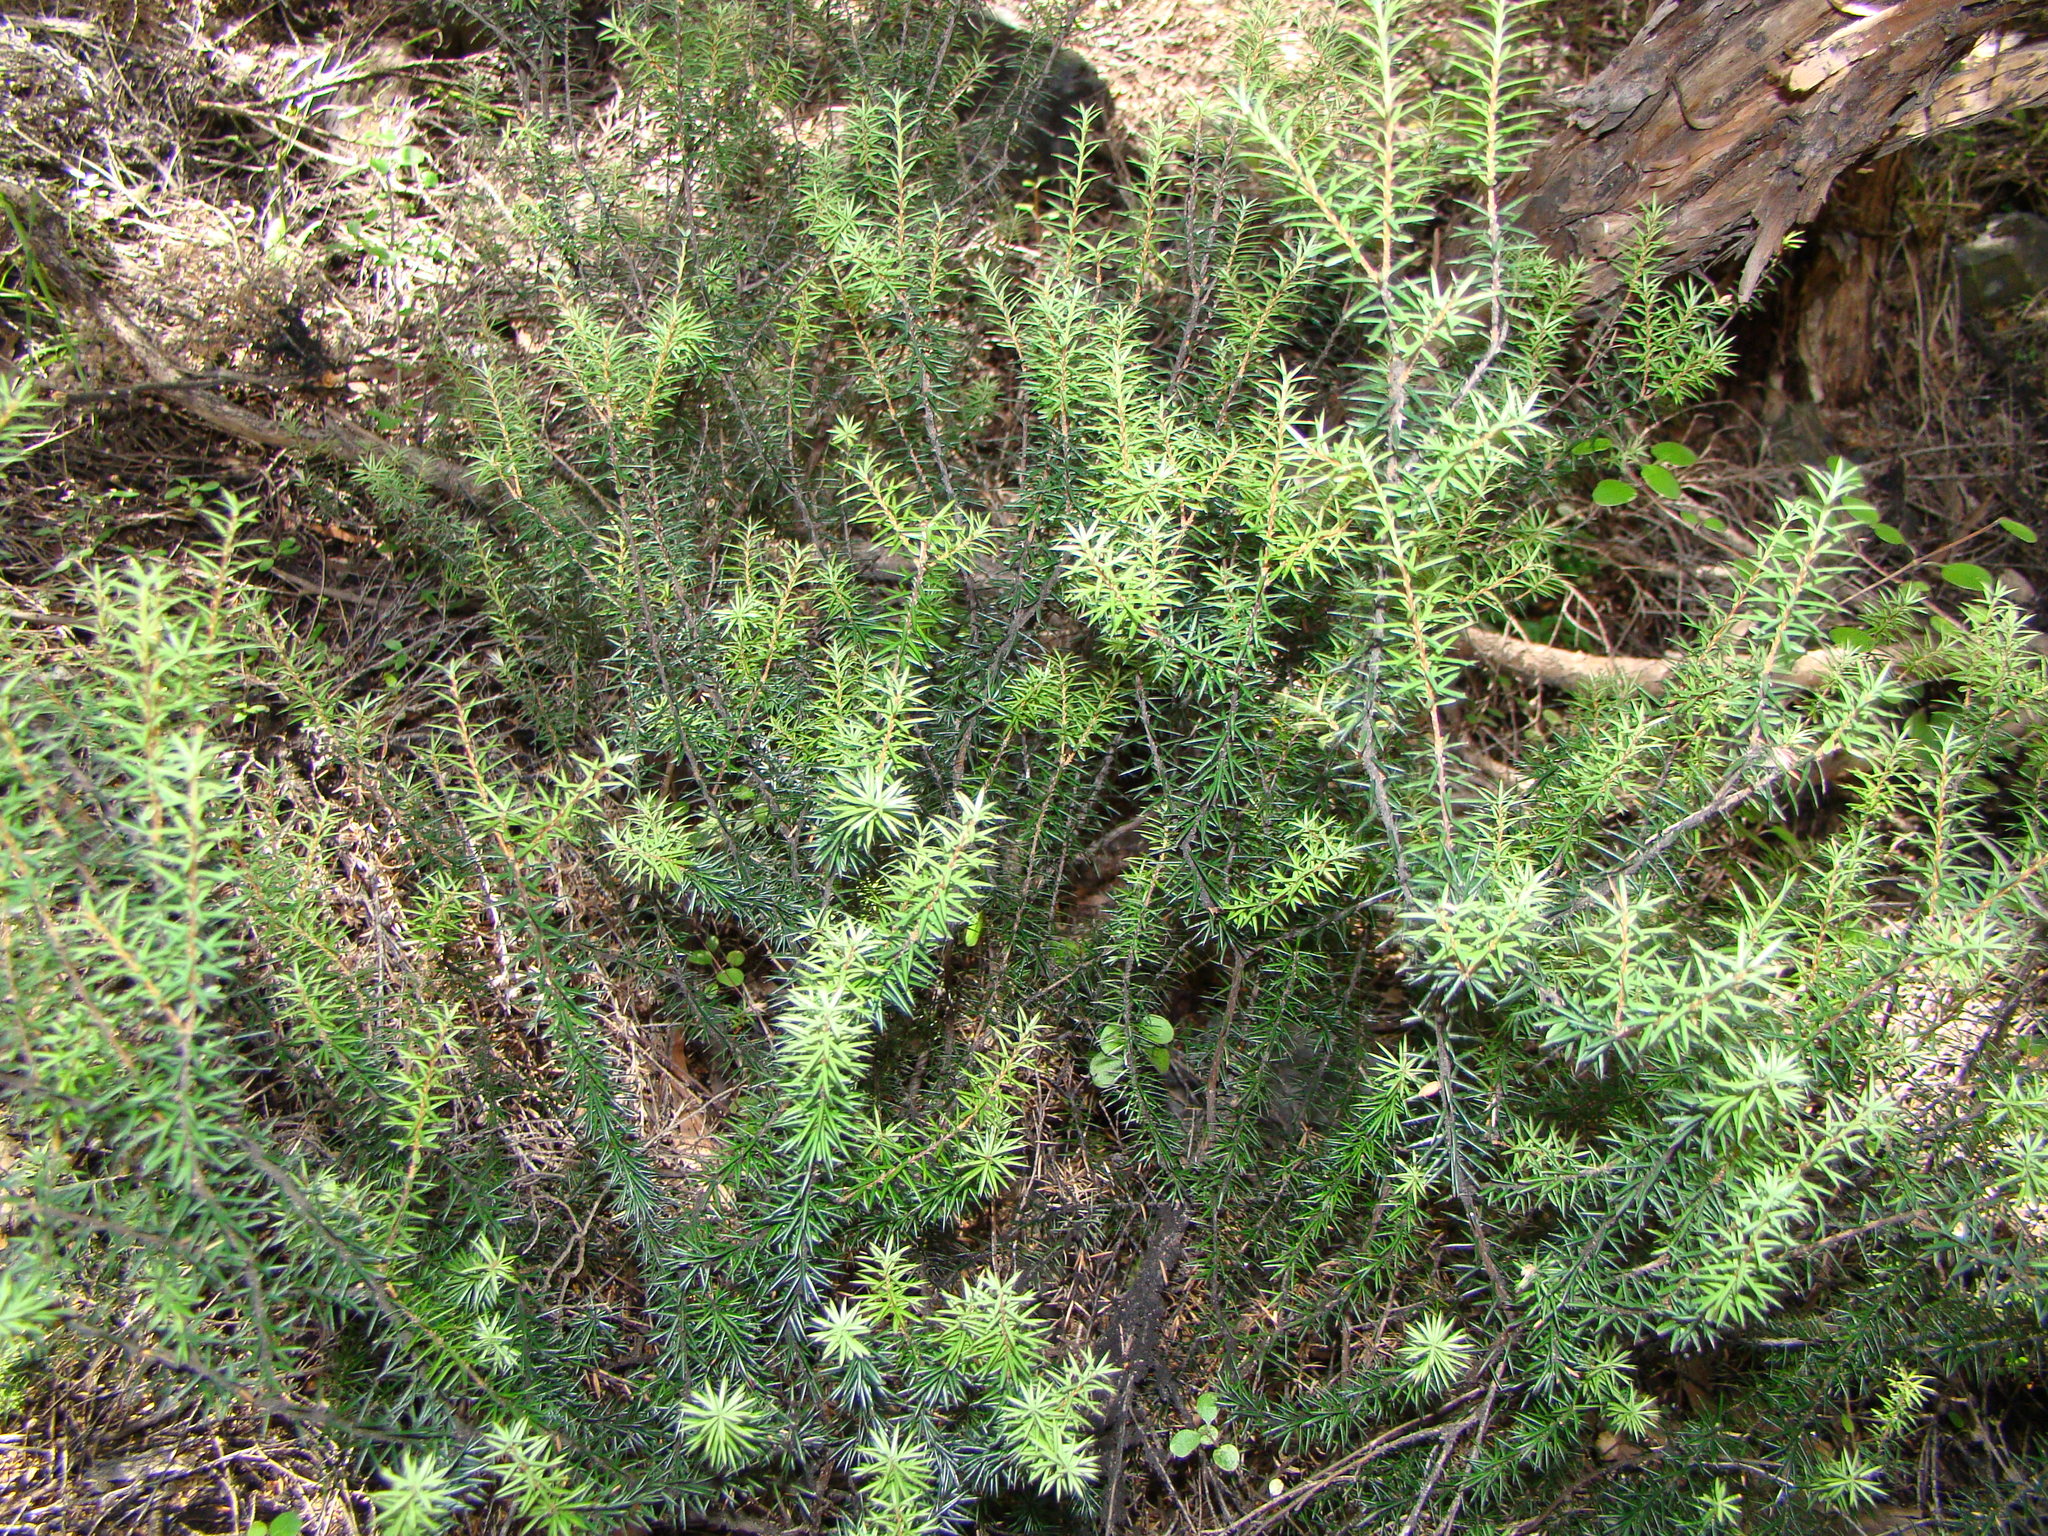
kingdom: Plantae
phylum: Tracheophyta
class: Magnoliopsida
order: Ericales
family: Ericaceae
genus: Leptecophylla
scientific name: Leptecophylla juniperina
